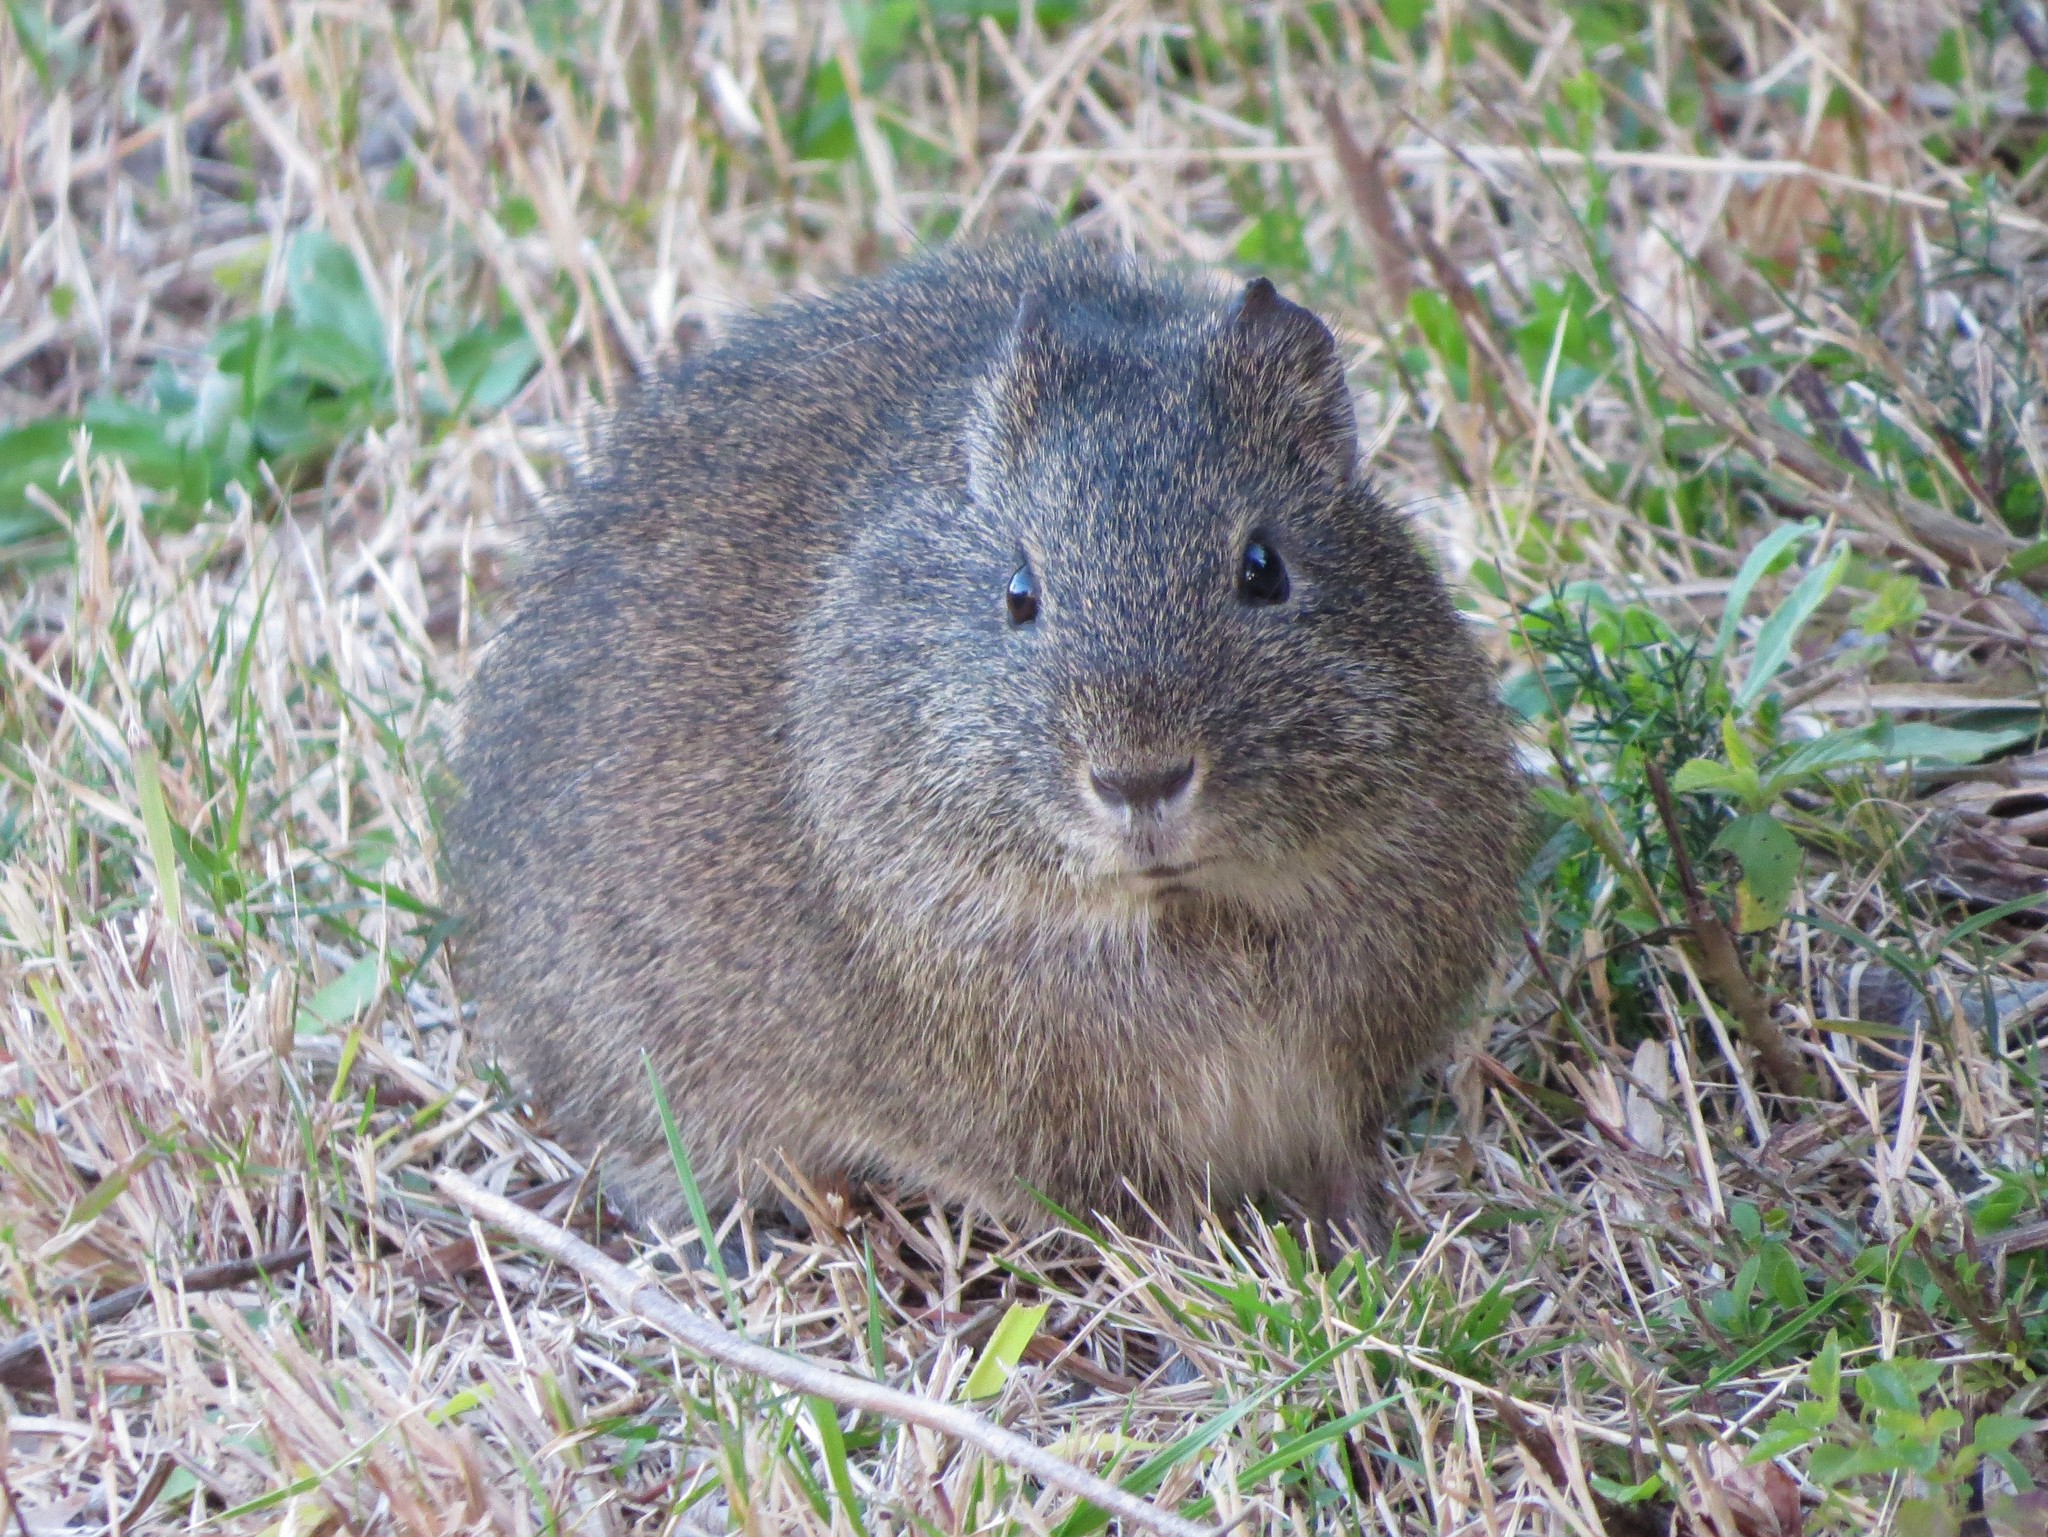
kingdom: Animalia
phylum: Chordata
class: Mammalia
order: Rodentia
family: Caviidae
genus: Cavia
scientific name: Cavia aperea
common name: Brazilian guinea pig
